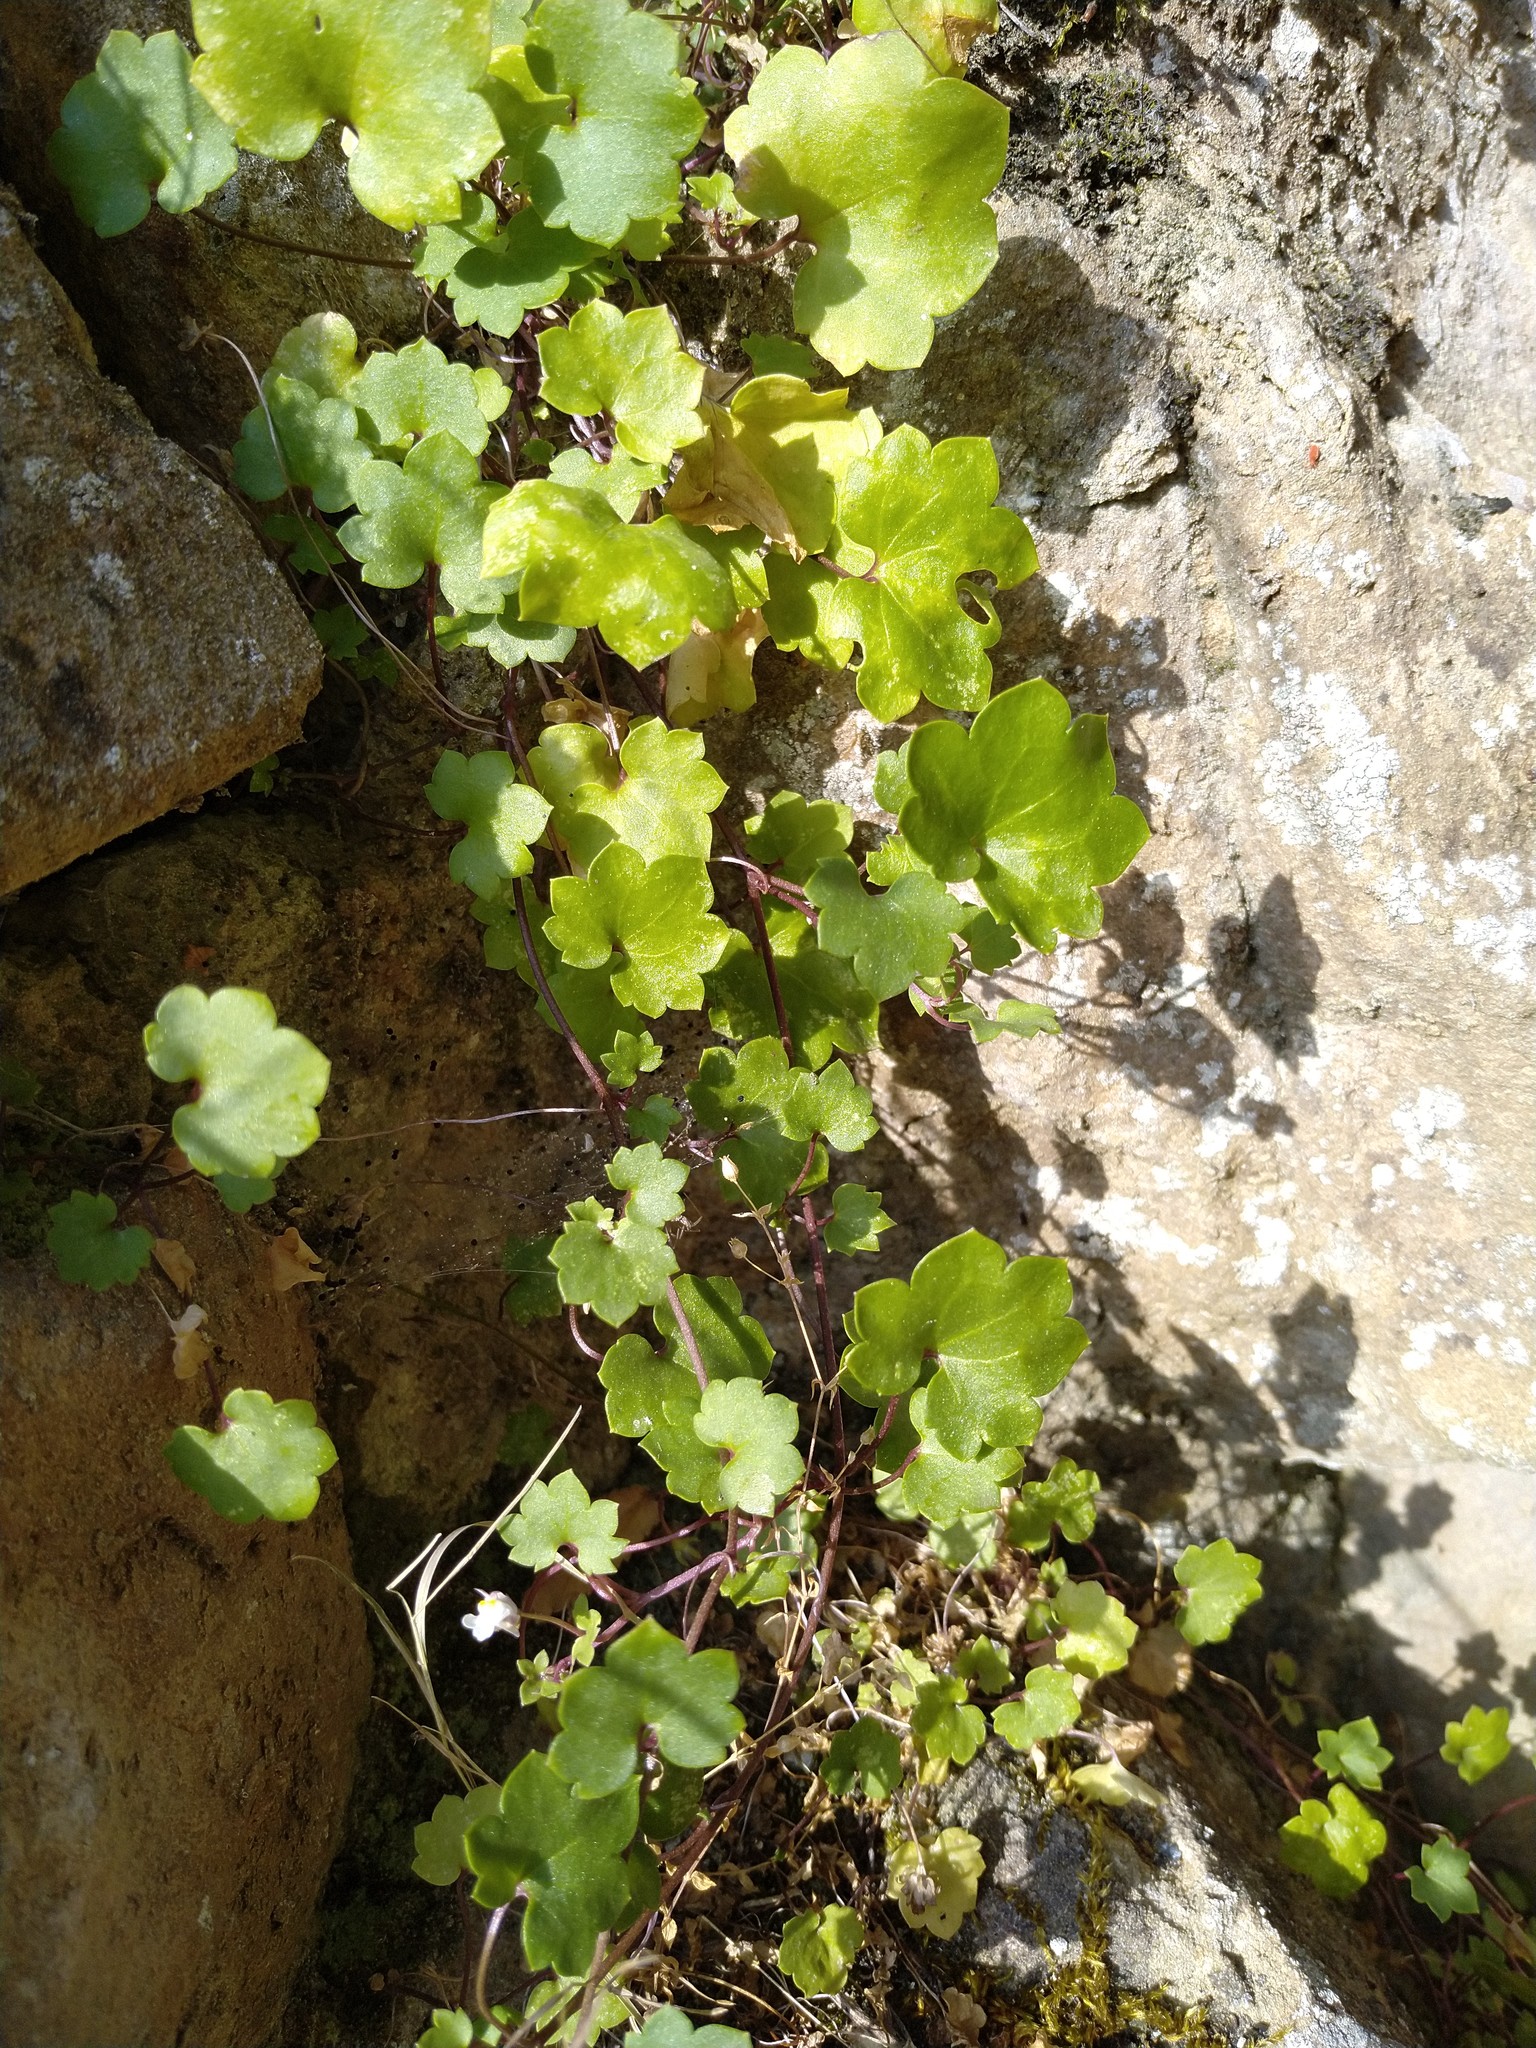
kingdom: Plantae
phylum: Tracheophyta
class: Magnoliopsida
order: Lamiales
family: Plantaginaceae
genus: Cymbalaria
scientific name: Cymbalaria muralis
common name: Ivy-leaved toadflax
